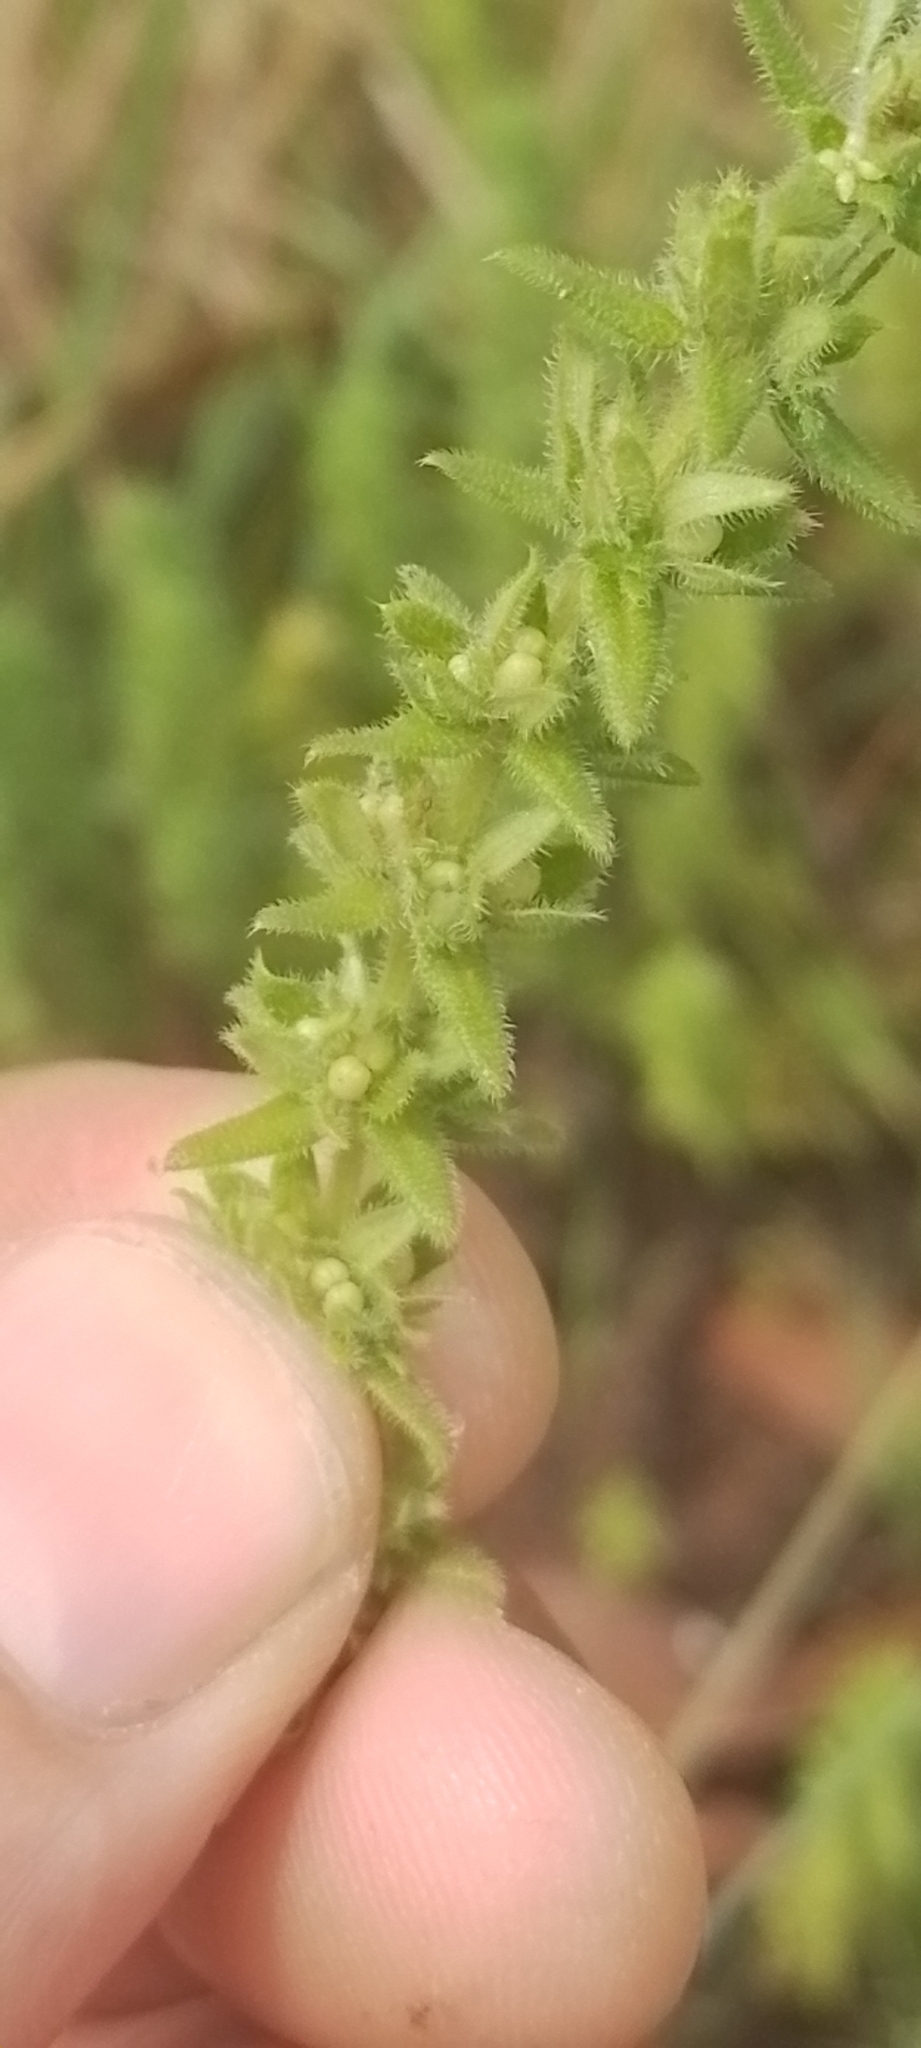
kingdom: Plantae
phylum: Tracheophyta
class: Magnoliopsida
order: Gentianales
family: Rubiaceae
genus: Galium
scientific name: Galium hirtum
